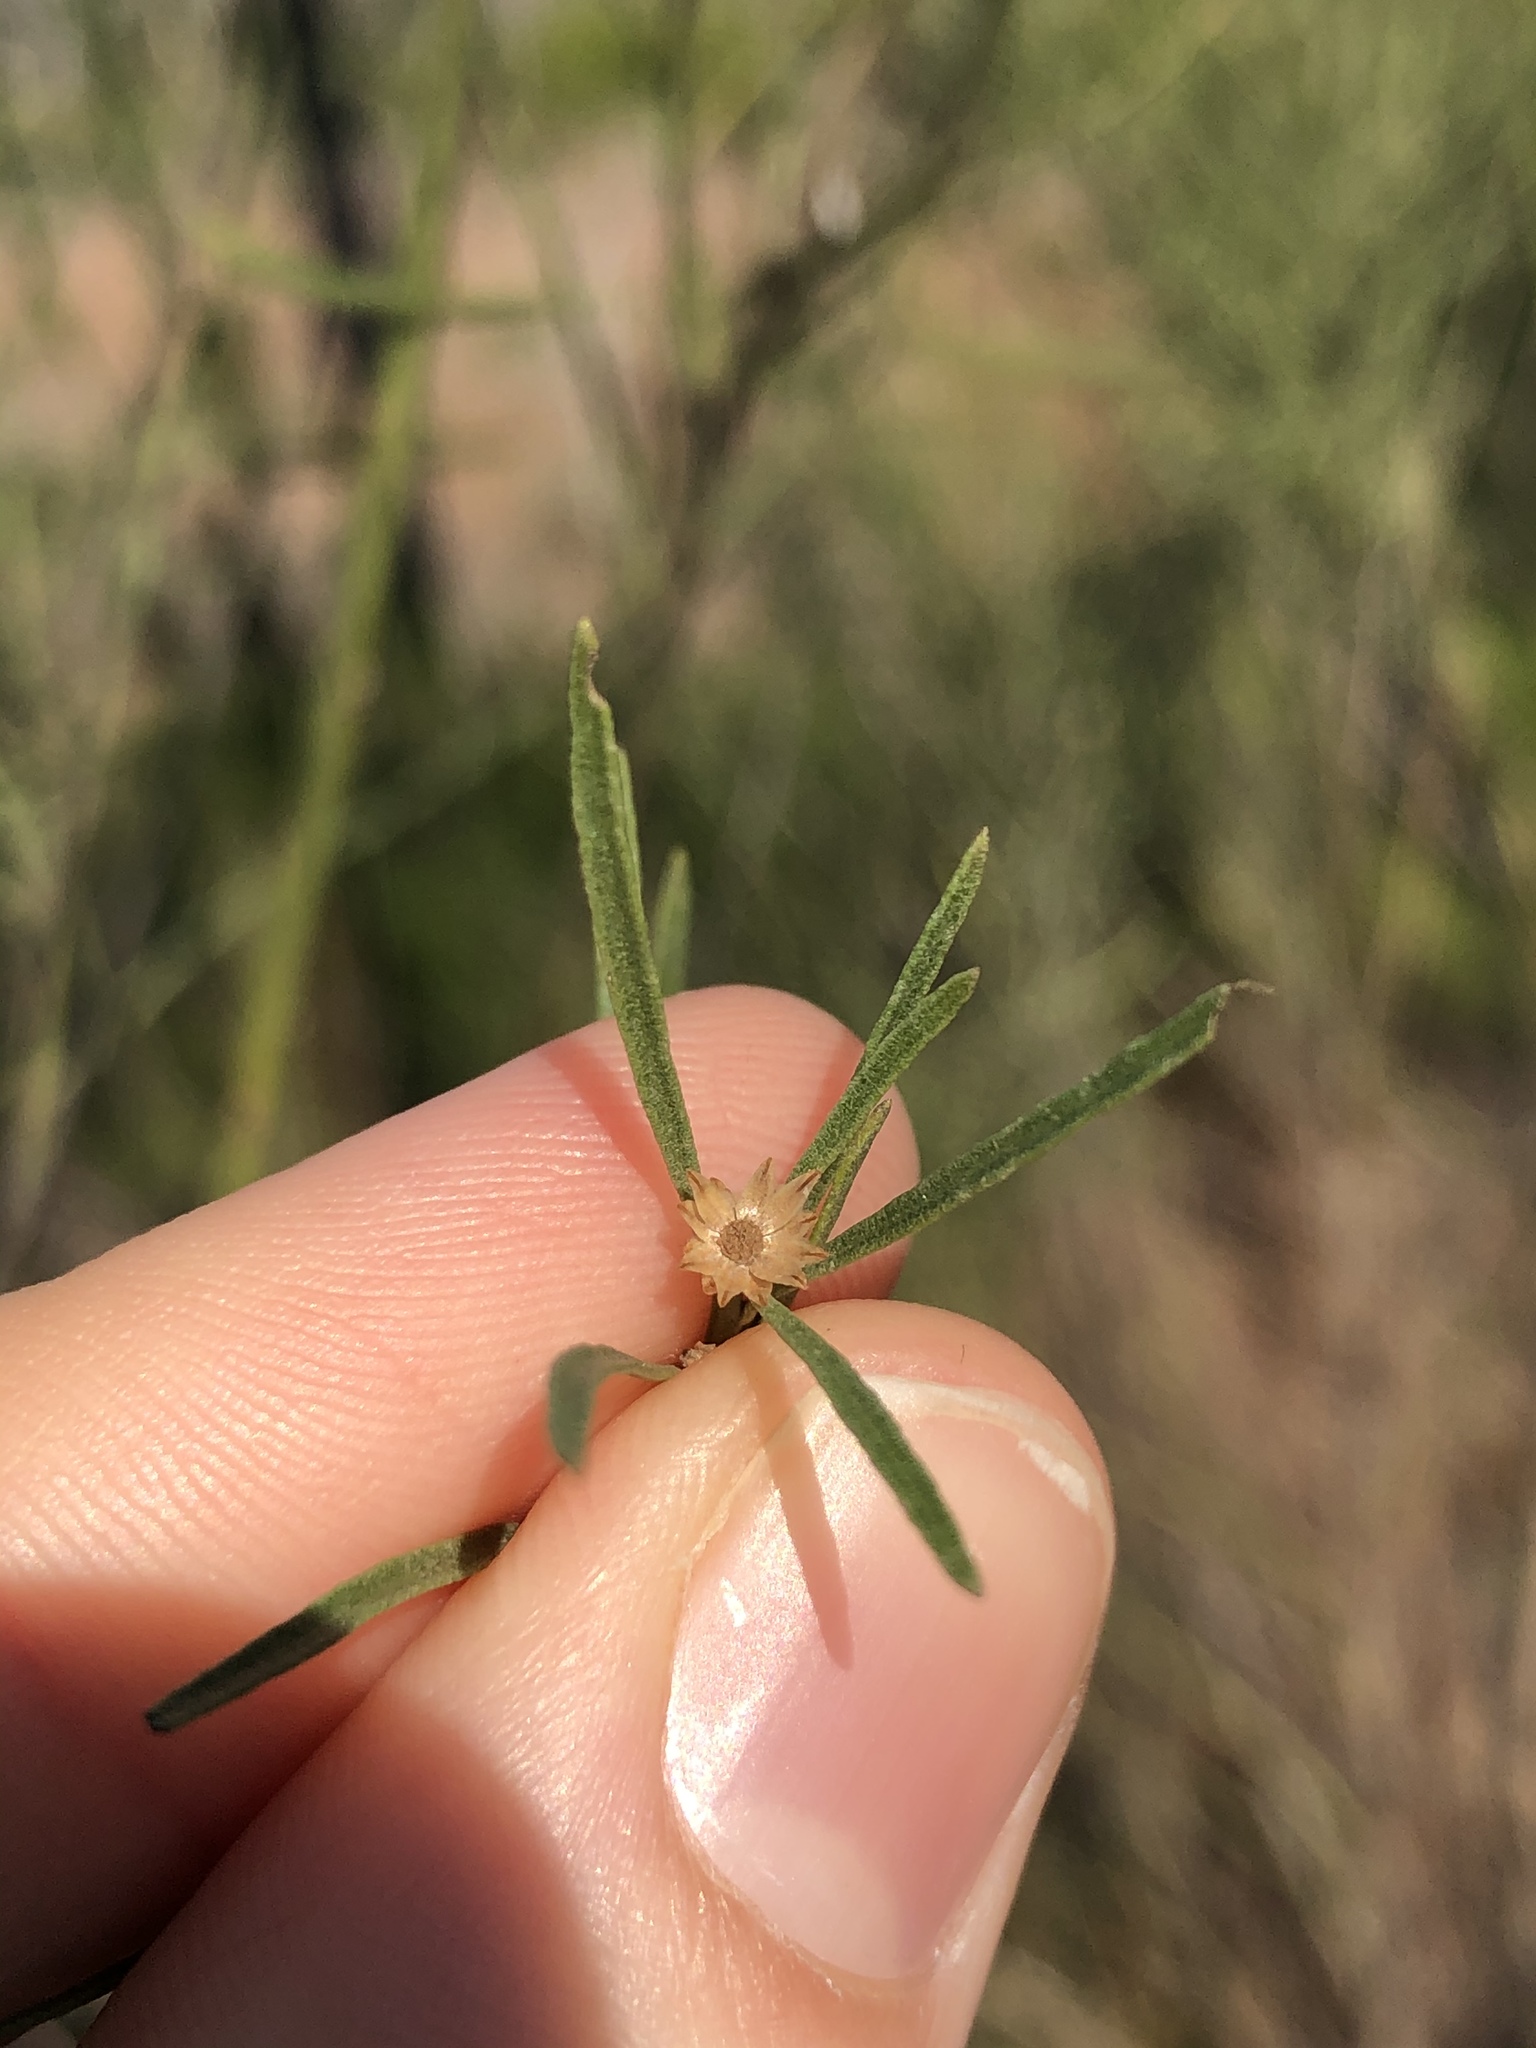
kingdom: Plantae
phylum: Tracheophyta
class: Magnoliopsida
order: Asterales
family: Asteraceae
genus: Baccharis
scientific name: Baccharis neglecta
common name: Roosevelt-weed
